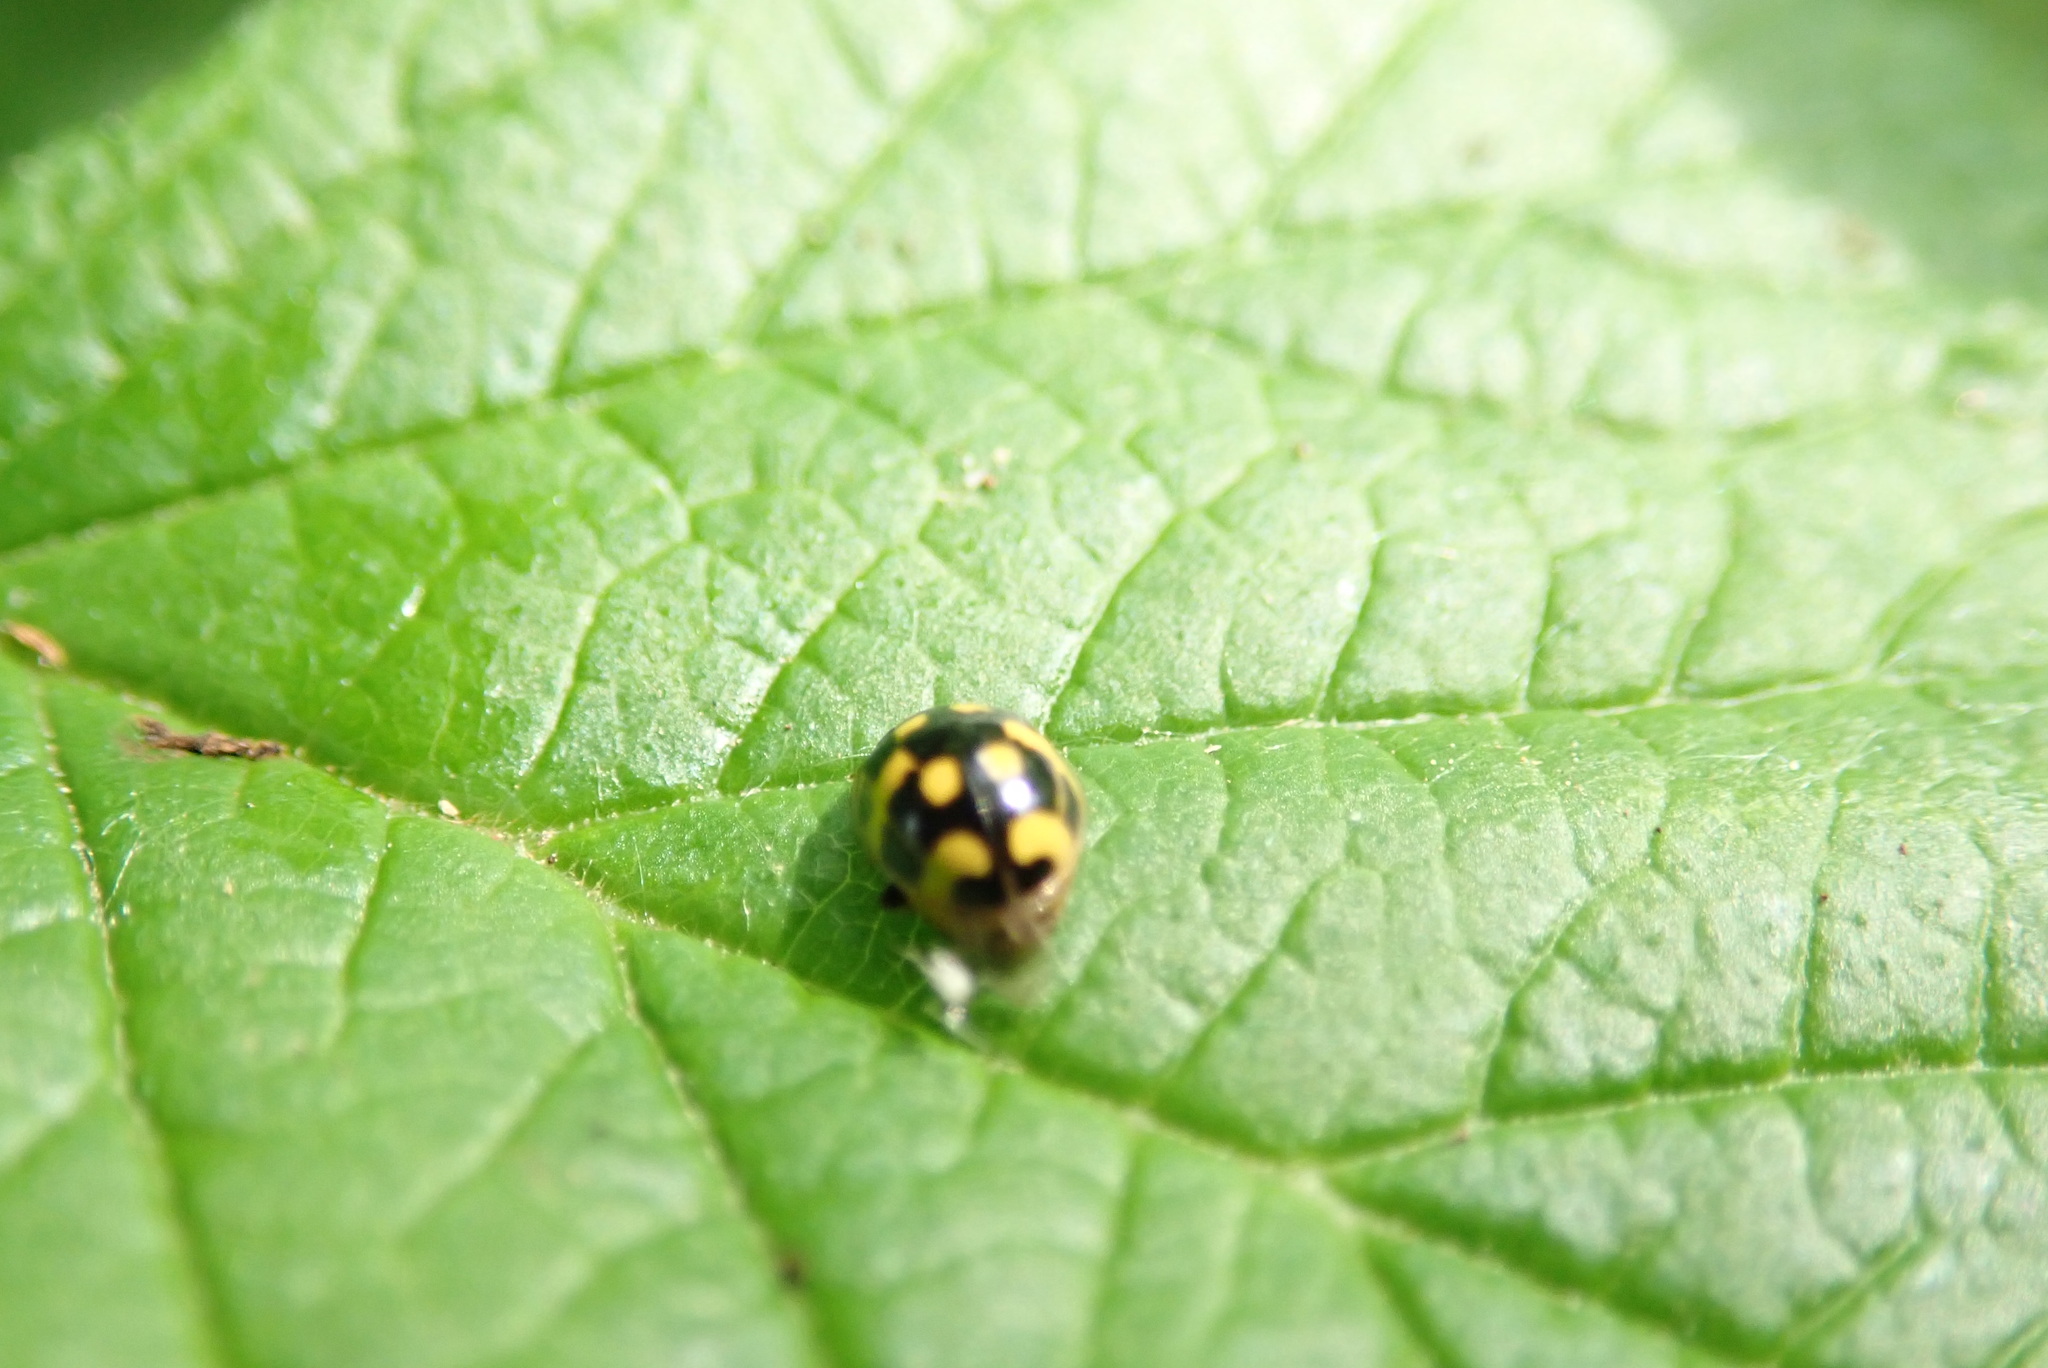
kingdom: Animalia
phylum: Arthropoda
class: Insecta
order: Coleoptera
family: Coccinellidae
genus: Propylaea
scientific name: Propylaea quatuordecimpunctata
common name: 14-spotted ladybird beetle
